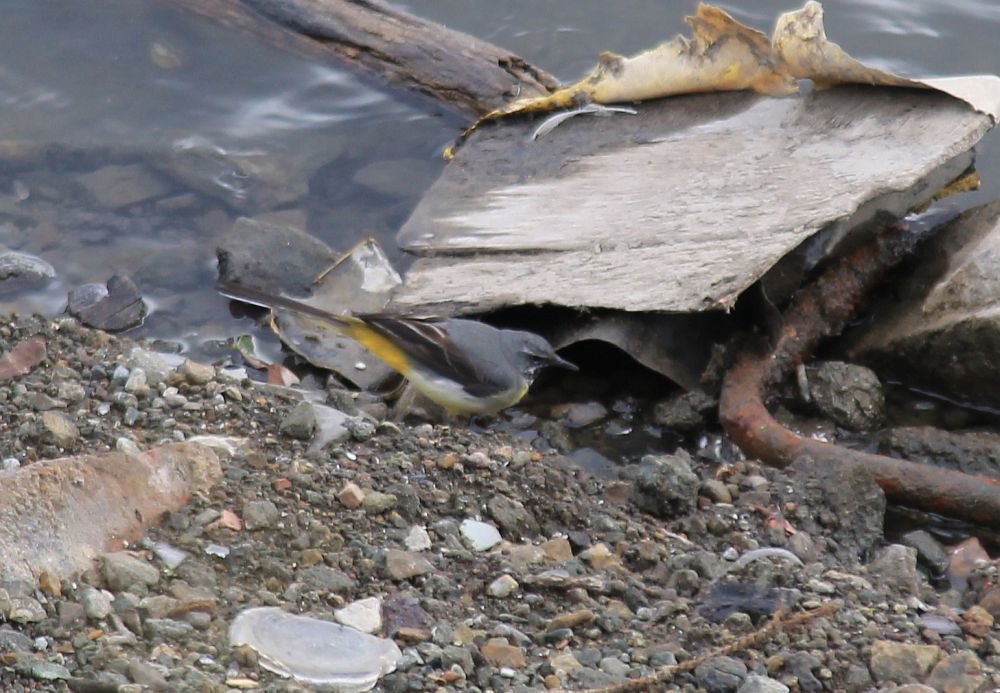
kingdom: Animalia
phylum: Chordata
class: Aves
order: Passeriformes
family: Motacillidae
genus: Motacilla
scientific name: Motacilla cinerea
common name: Grey wagtail
